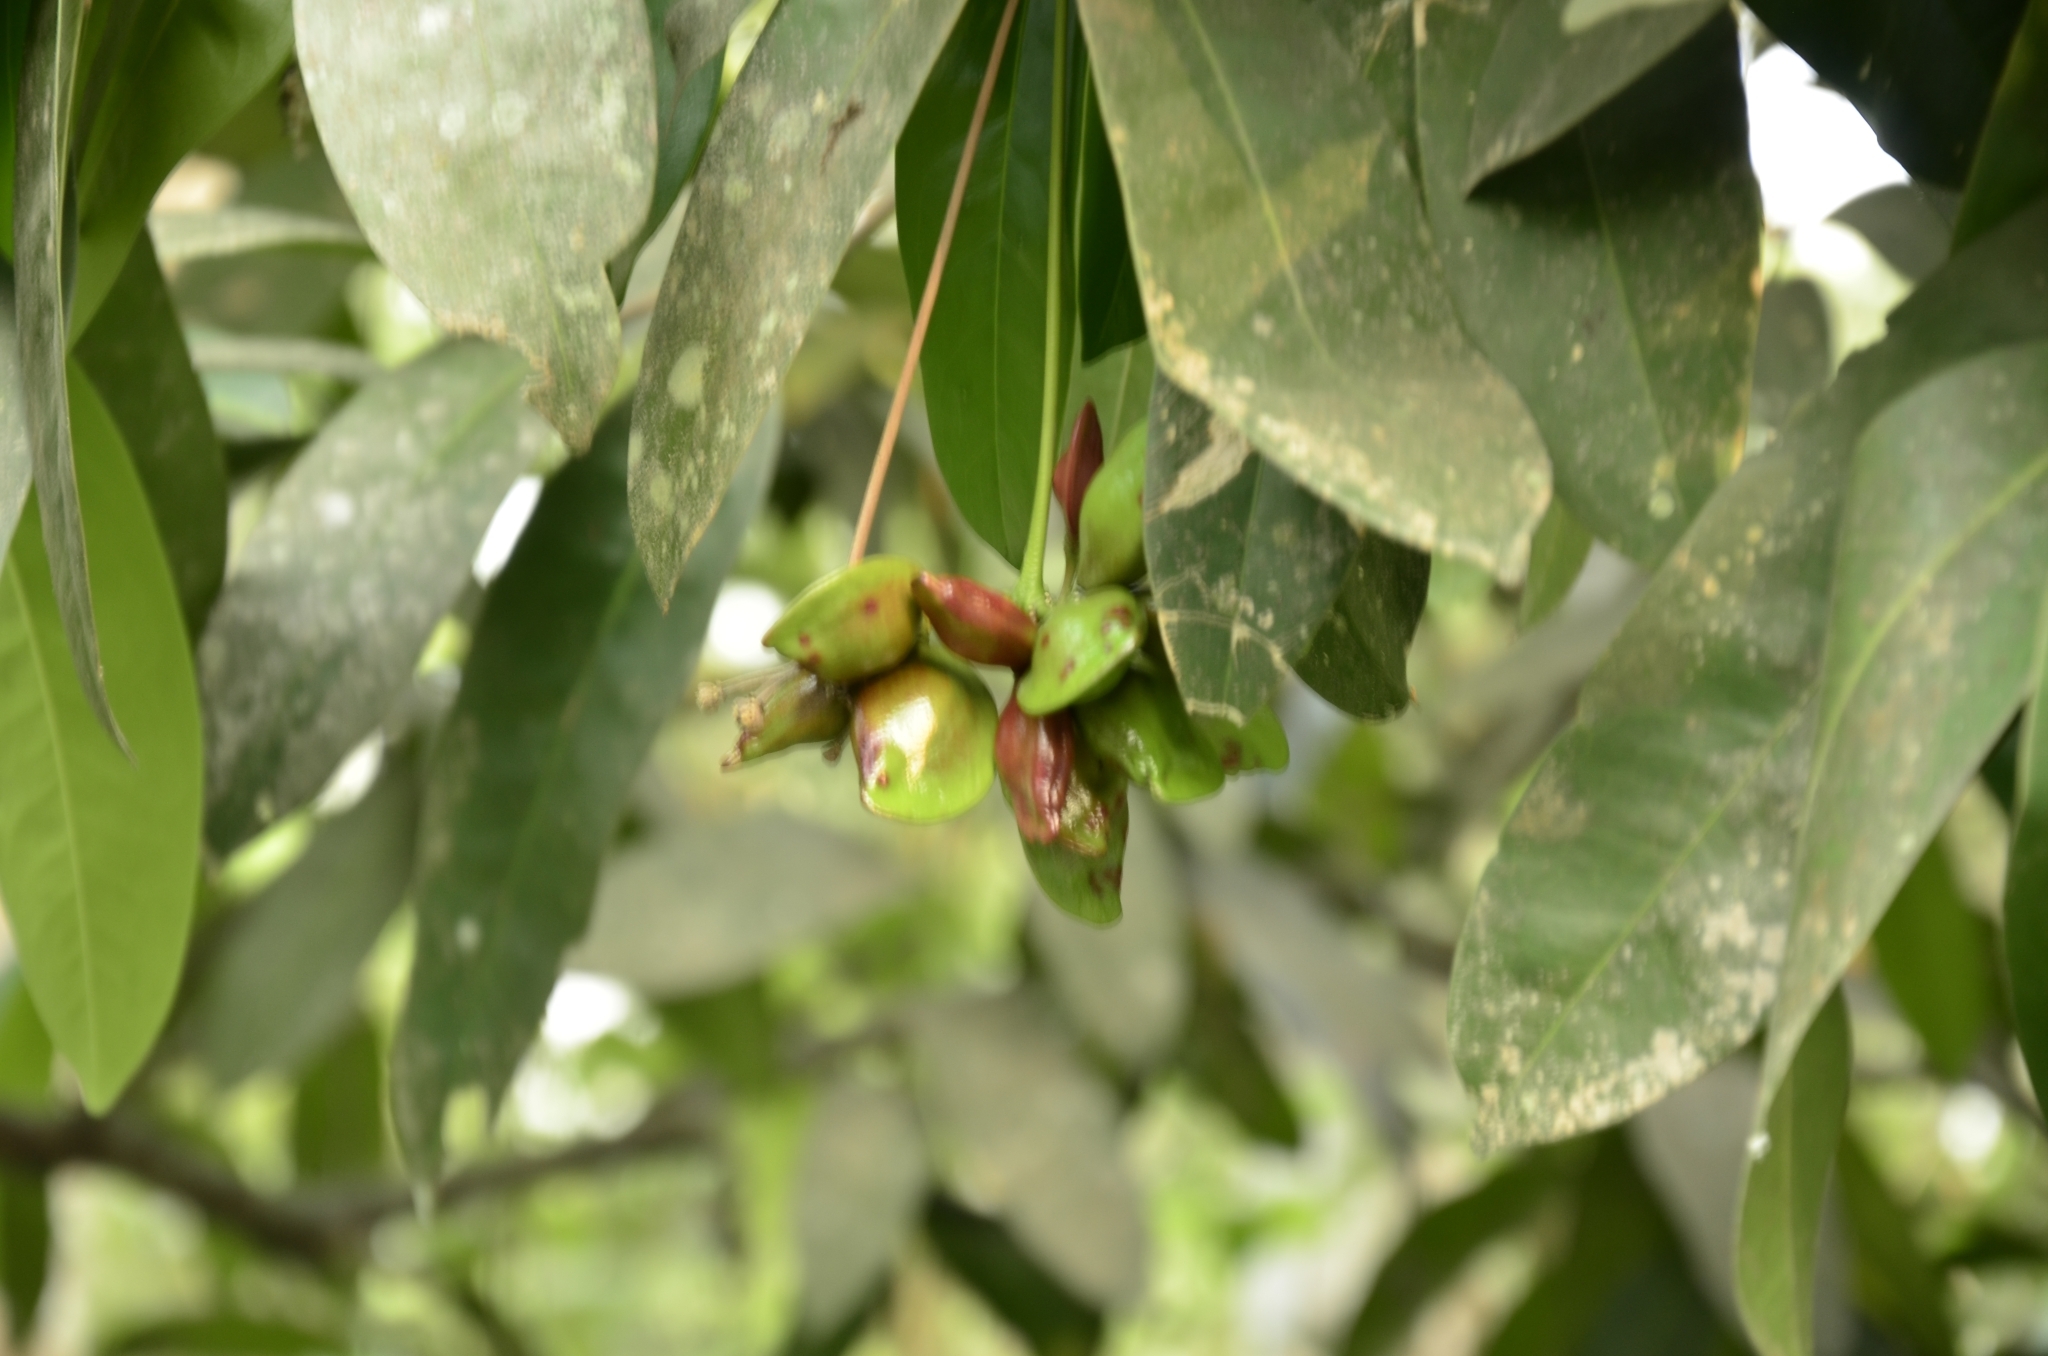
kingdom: Plantae
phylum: Tracheophyta
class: Magnoliopsida
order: Sapindales
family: Simaroubaceae
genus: Samadera
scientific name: Samadera indica
